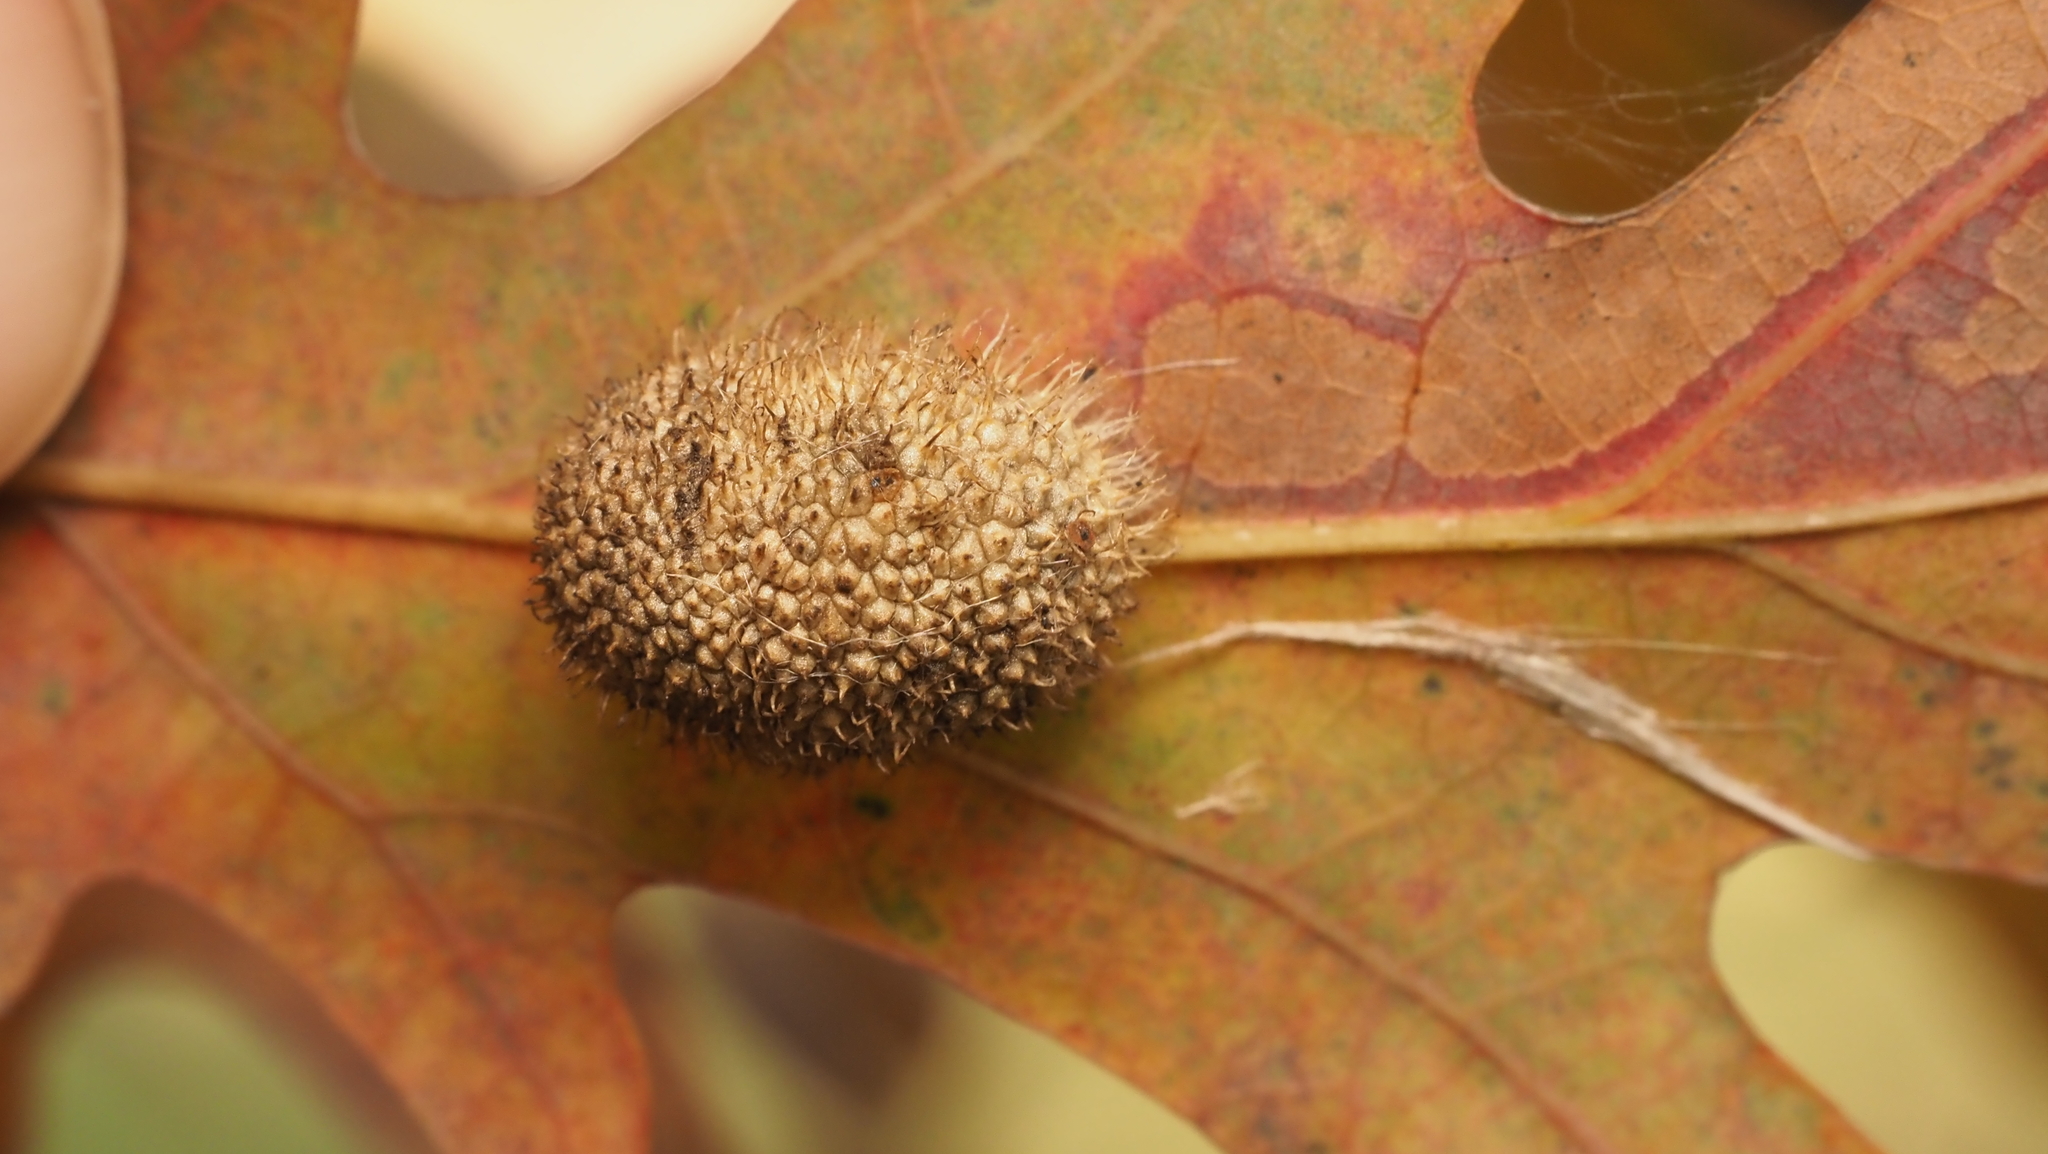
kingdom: Animalia
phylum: Arthropoda
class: Insecta
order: Hymenoptera
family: Cynipidae
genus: Acraspis
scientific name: Acraspis erinacei
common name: Hedgehog gall wasp
